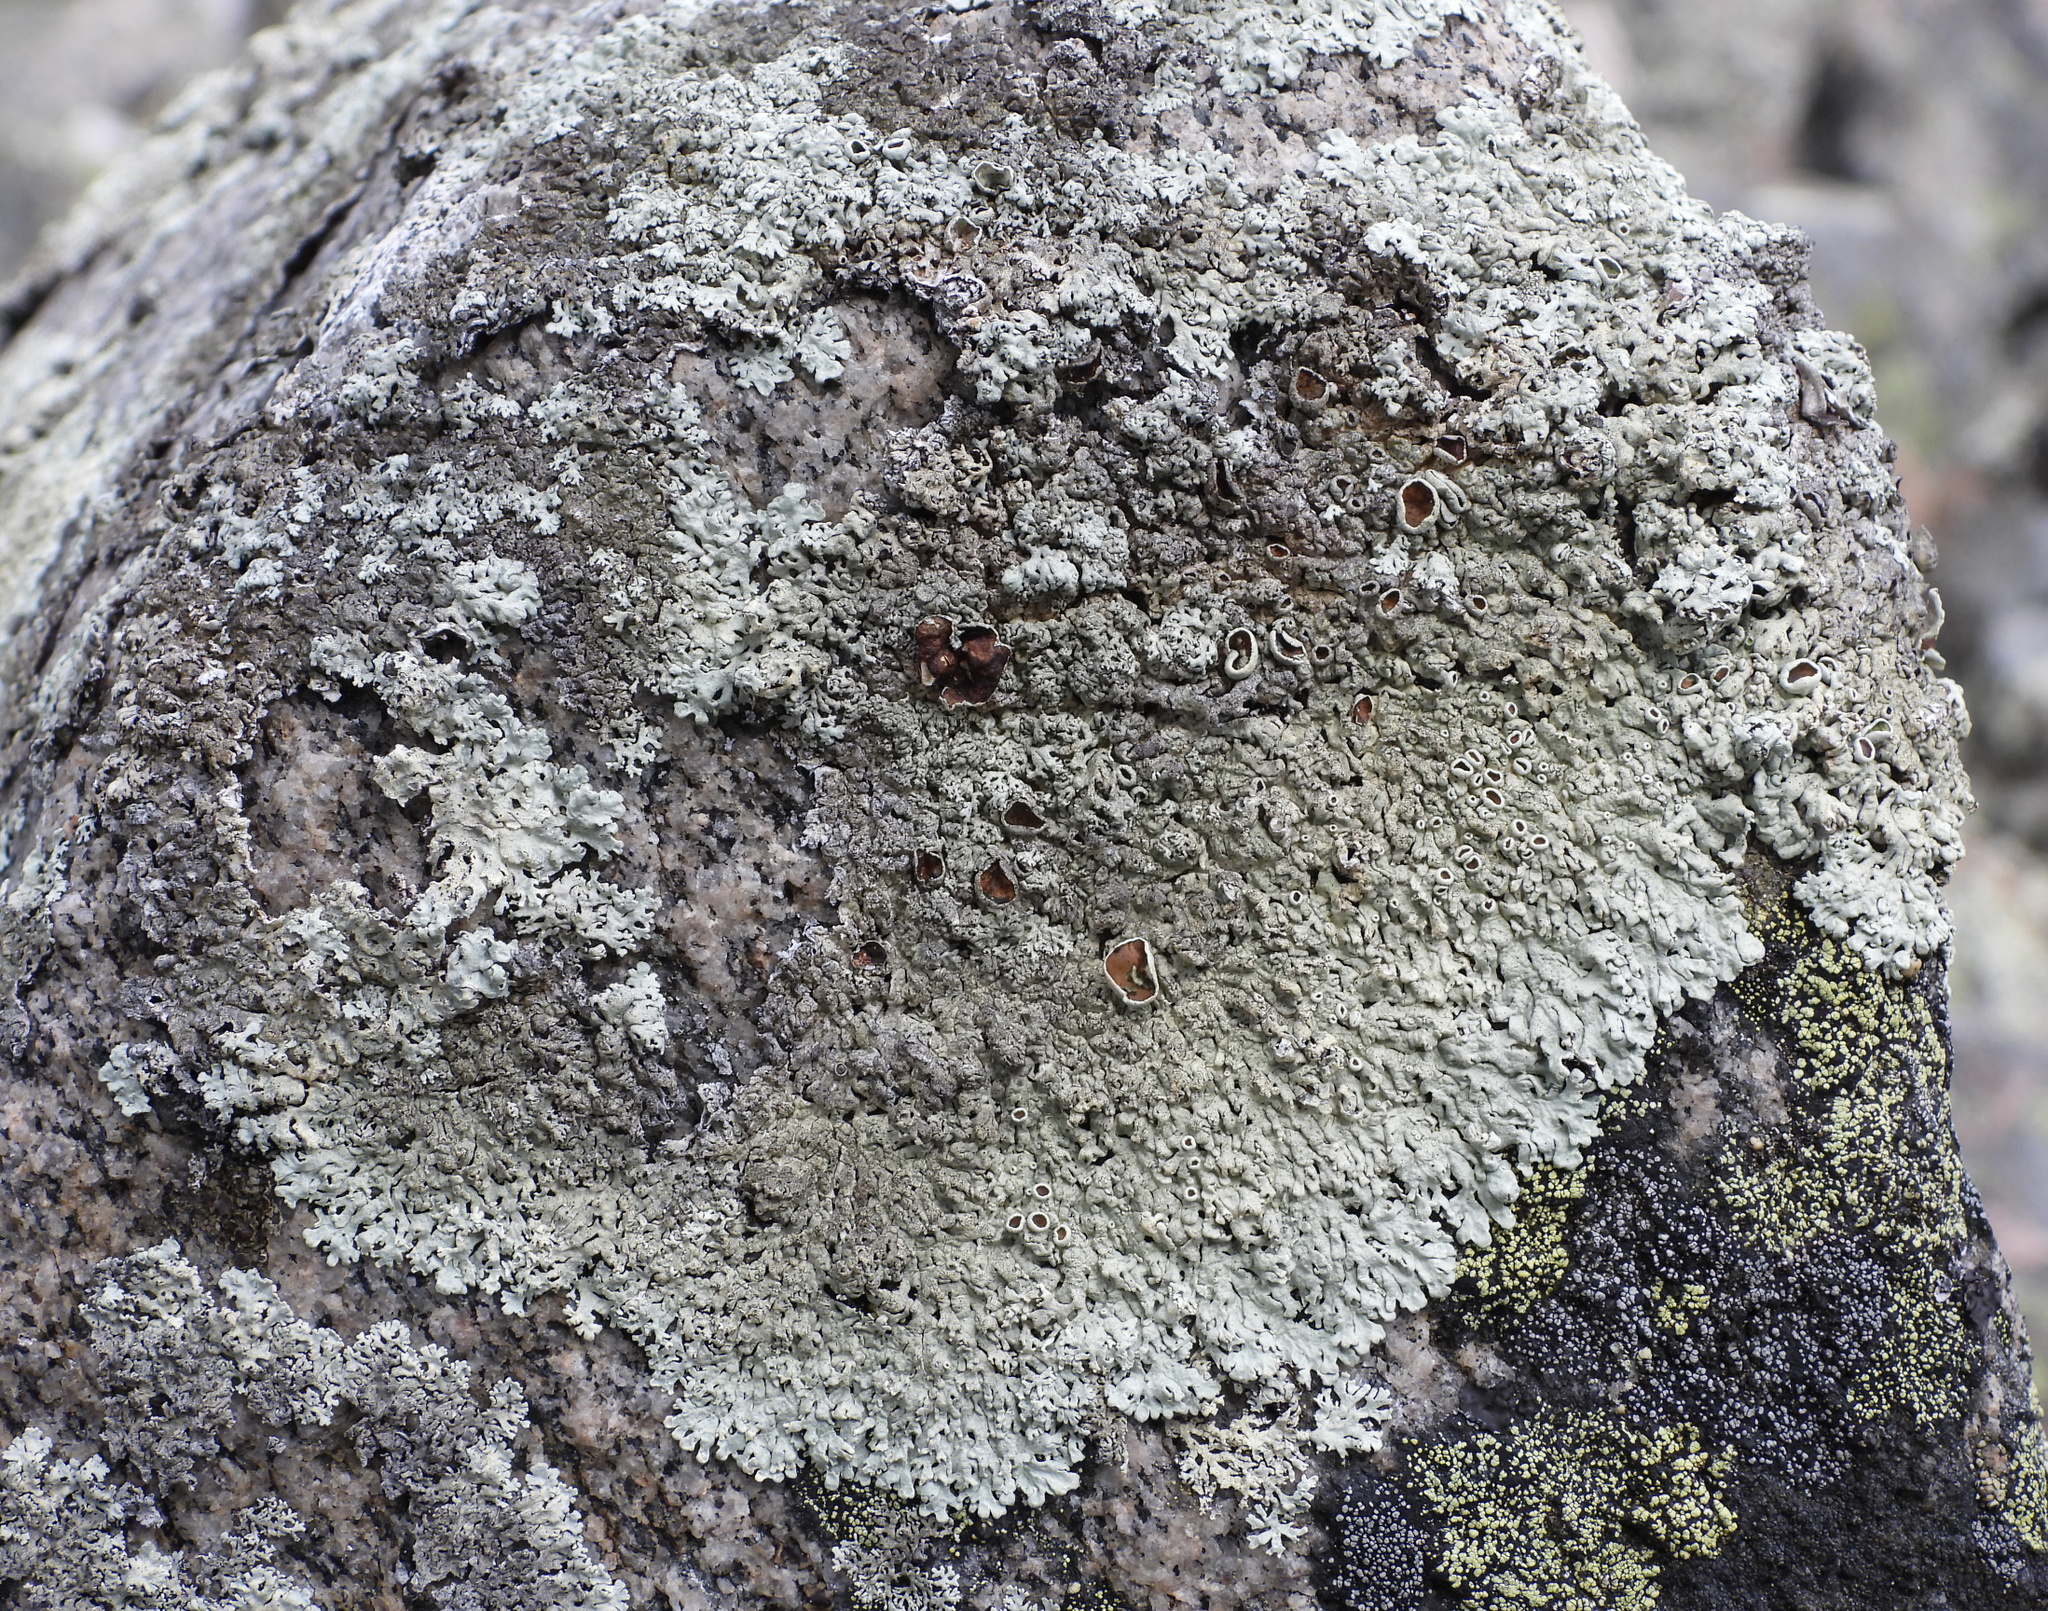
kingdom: Fungi
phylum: Ascomycota
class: Lecanoromycetes
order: Lecanorales
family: Parmeliaceae
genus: Arctoparmelia
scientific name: Arctoparmelia centrifuga
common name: Concentric ring lichen
